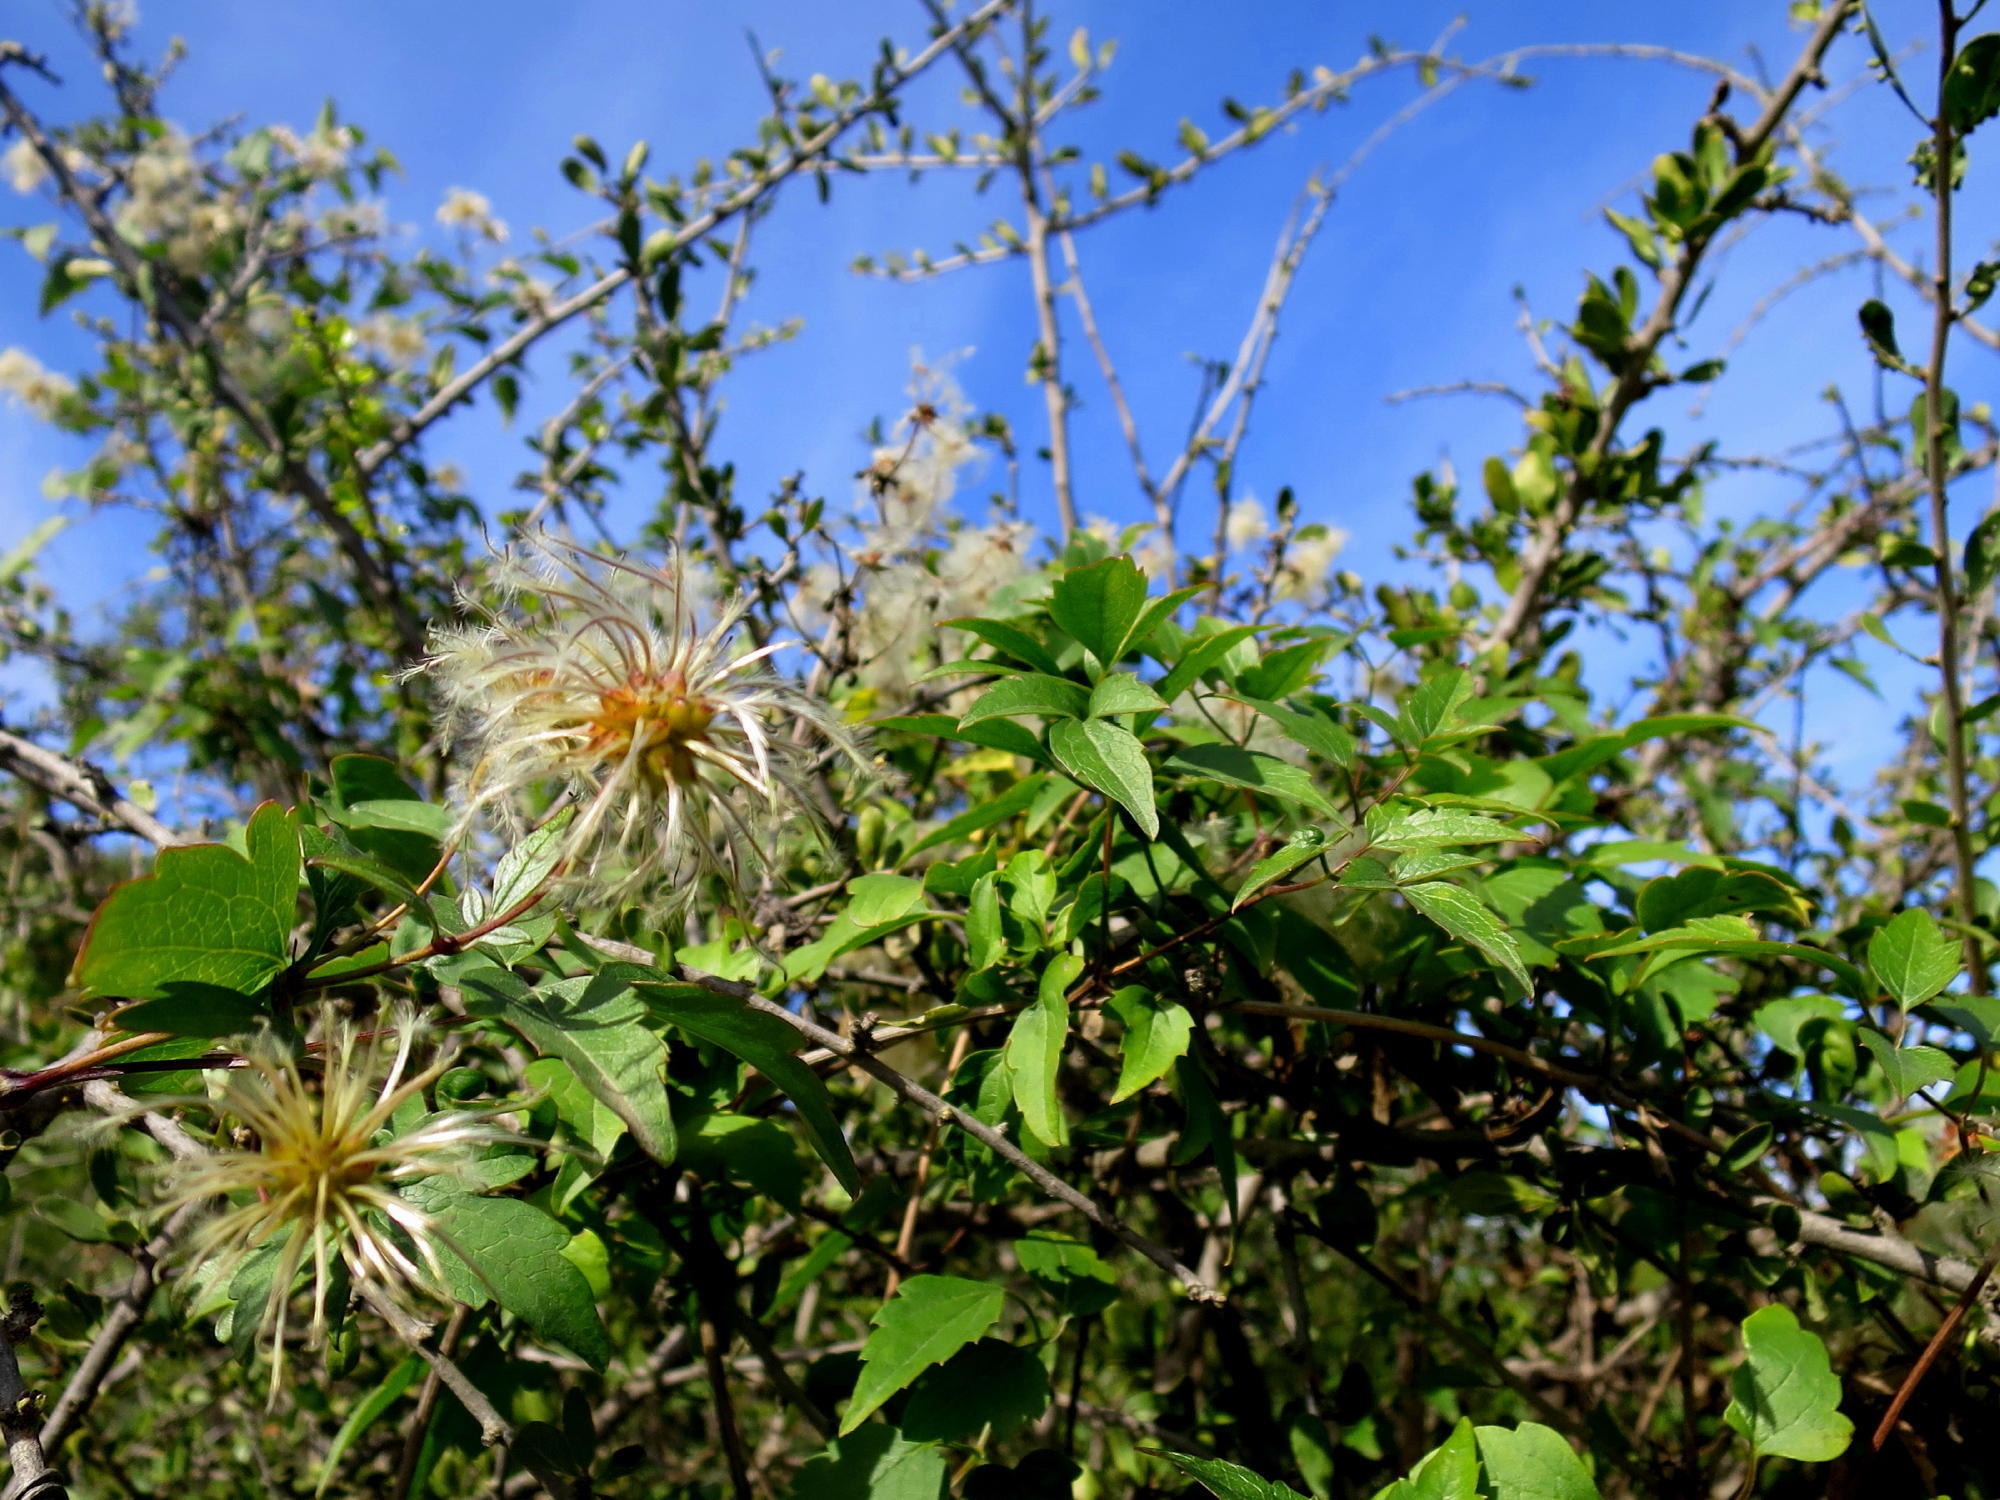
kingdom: Plantae
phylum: Tracheophyta
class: Magnoliopsida
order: Ranunculales
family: Ranunculaceae
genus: Clematis
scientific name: Clematis brachiata
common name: Traveler's-joy
